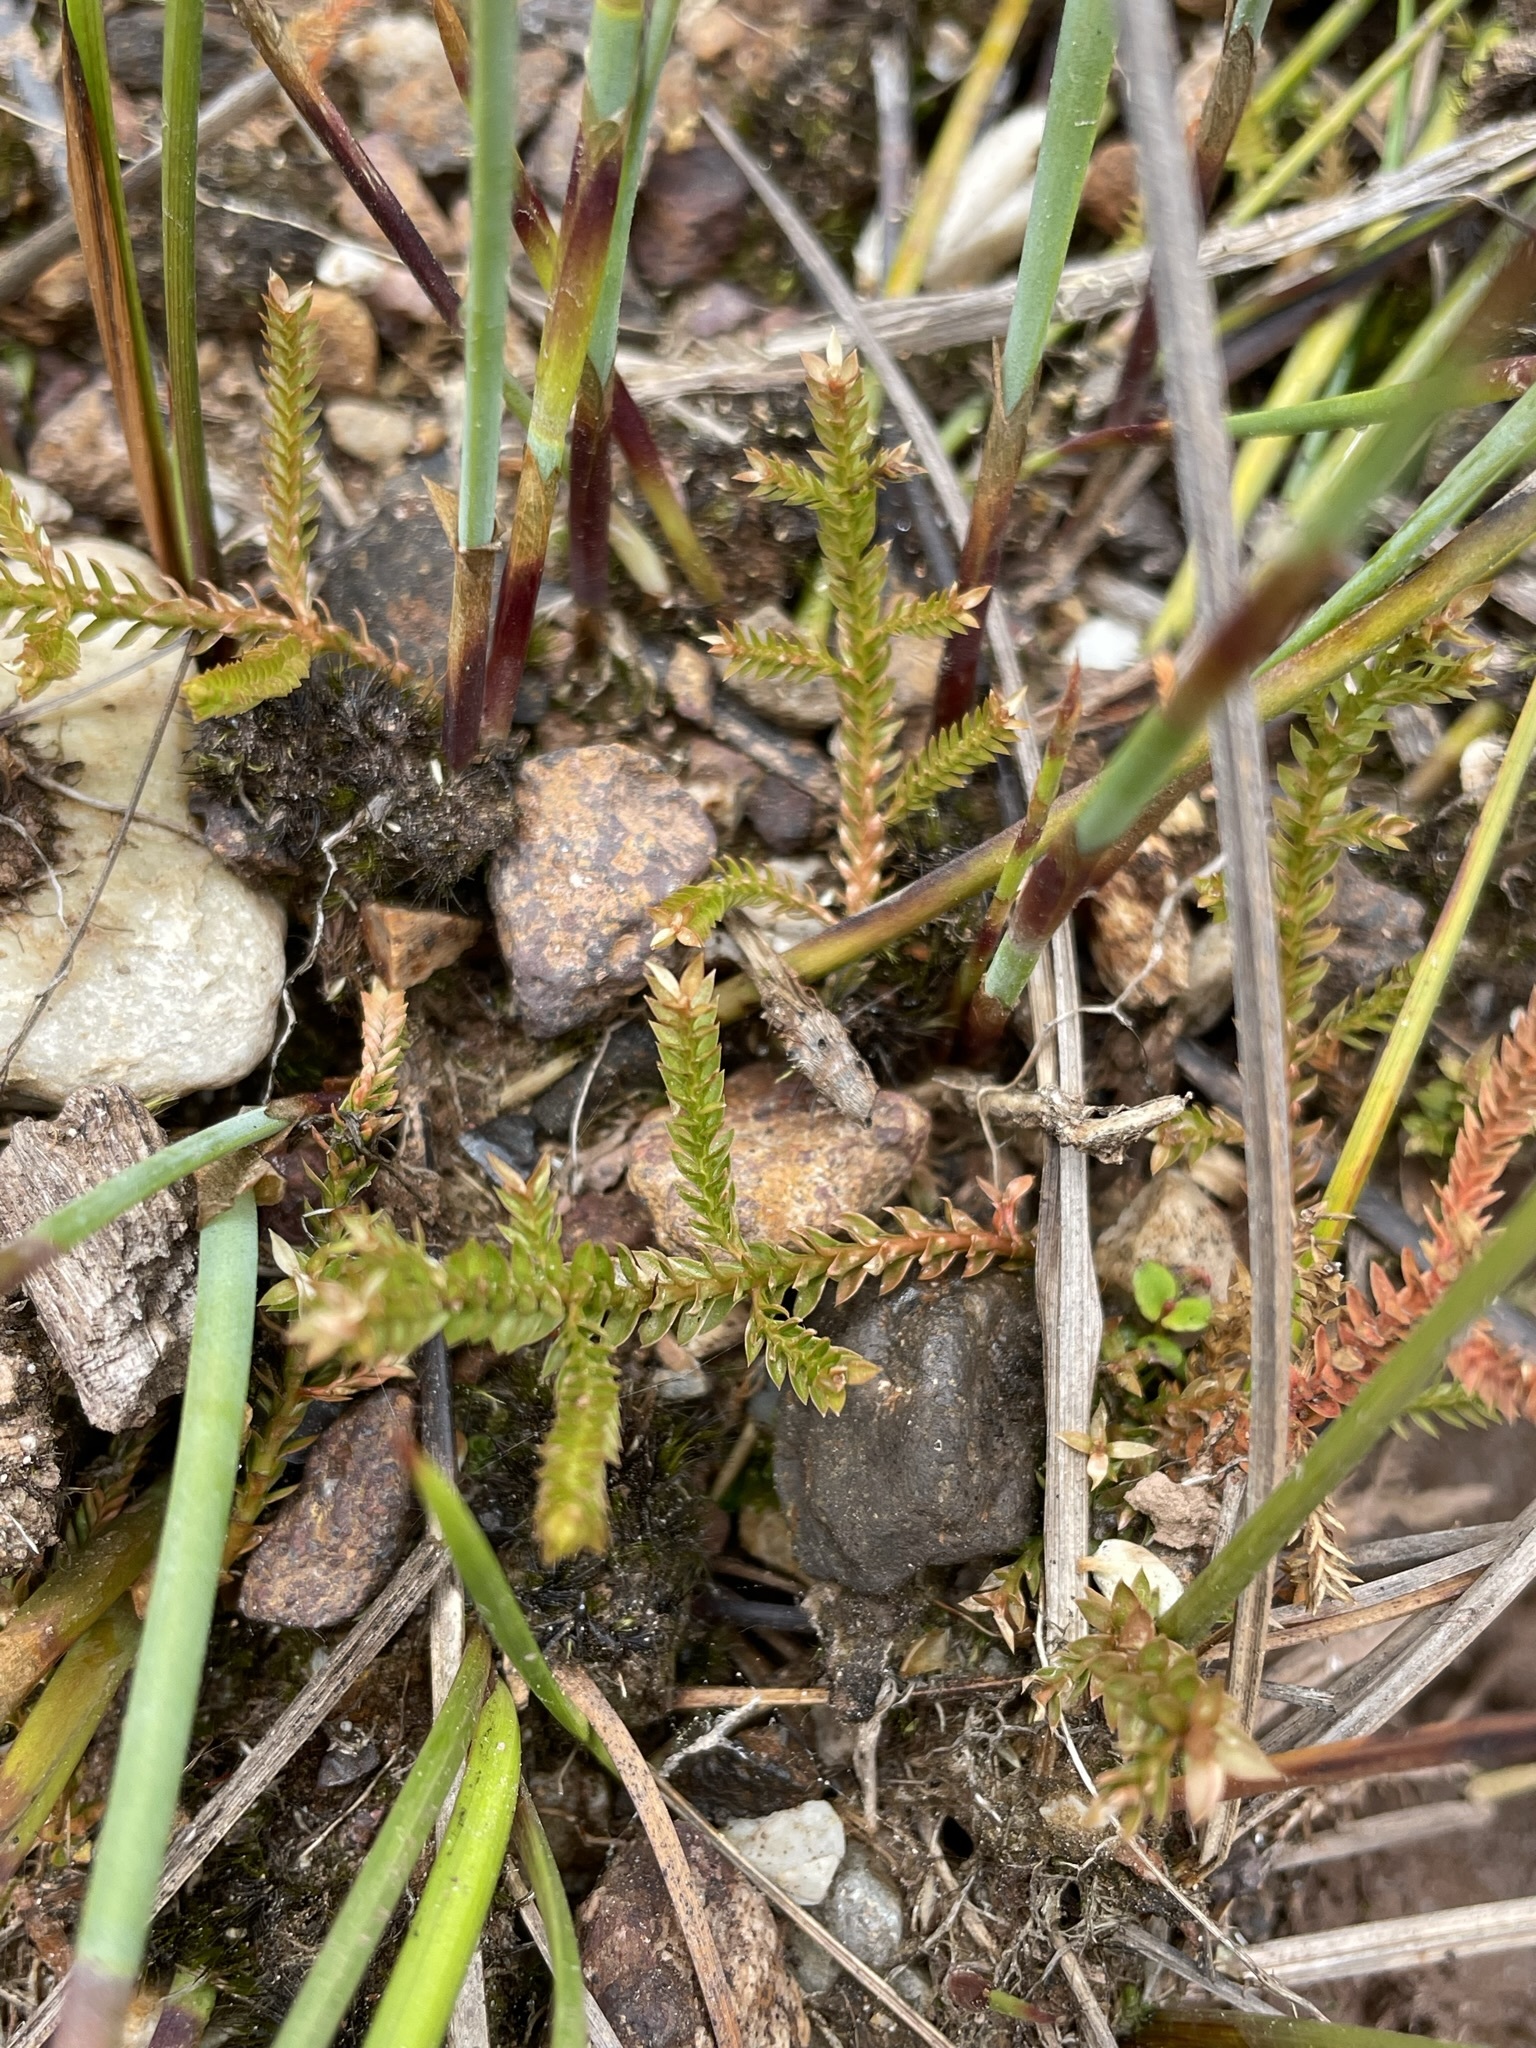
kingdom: Plantae
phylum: Tracheophyta
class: Lycopodiopsida
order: Selaginellales
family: Selaginellaceae
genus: Selaginella
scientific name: Selaginella uliginosa
